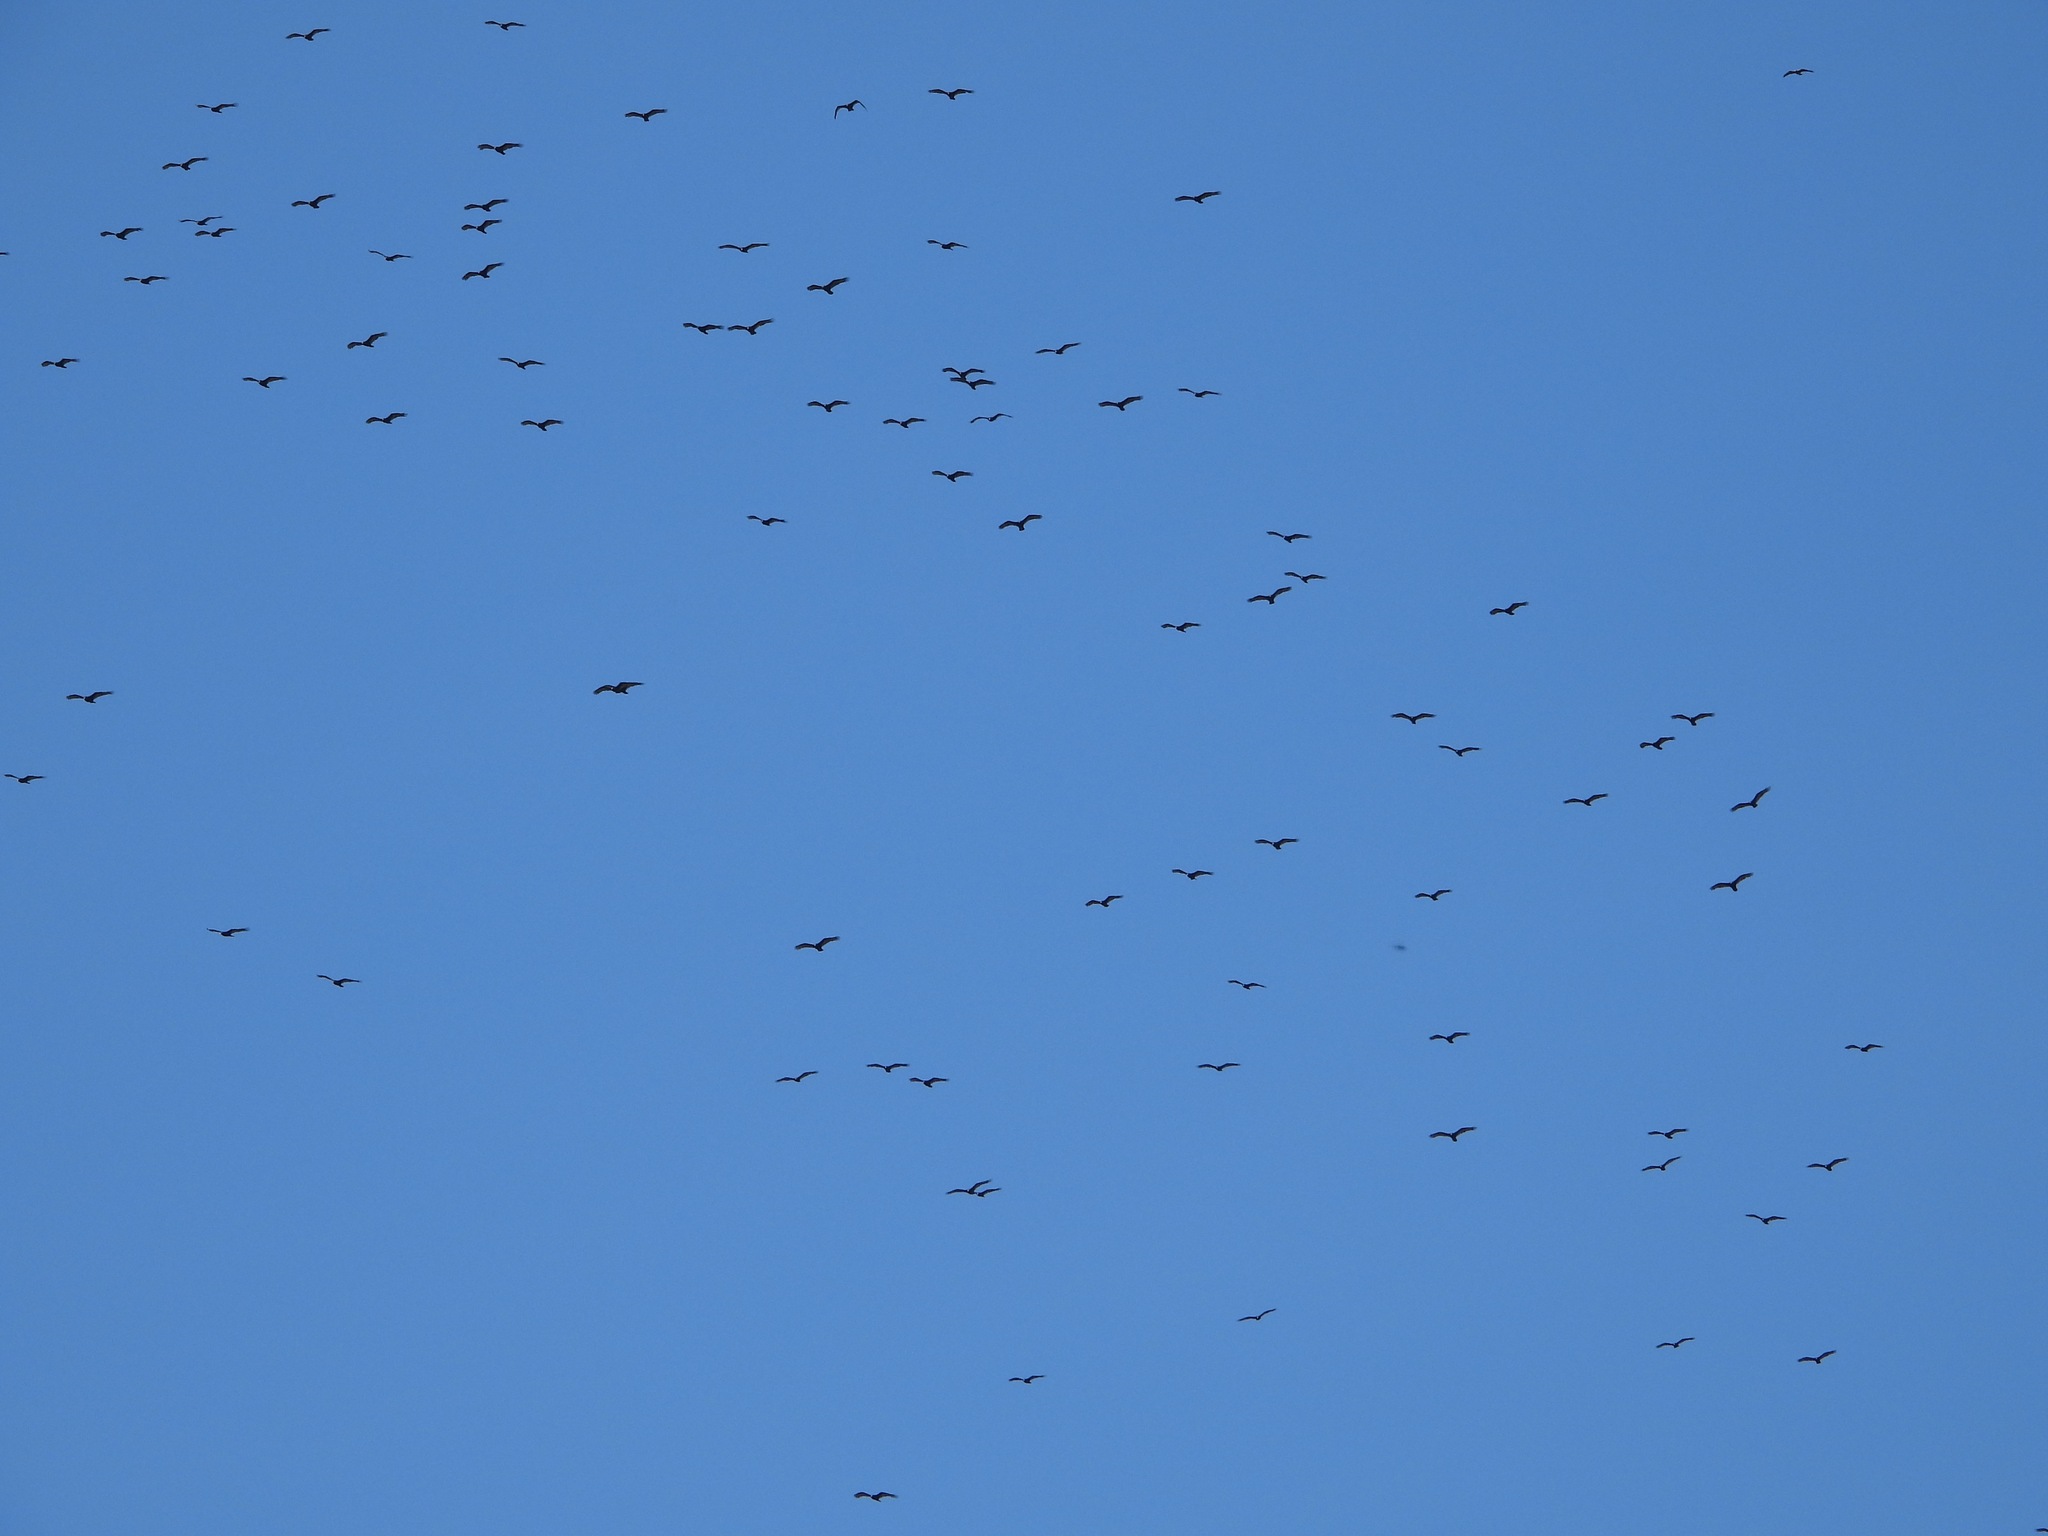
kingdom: Animalia
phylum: Chordata
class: Aves
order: Accipitriformes
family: Cathartidae
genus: Cathartes
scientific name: Cathartes aura
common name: Turkey vulture
